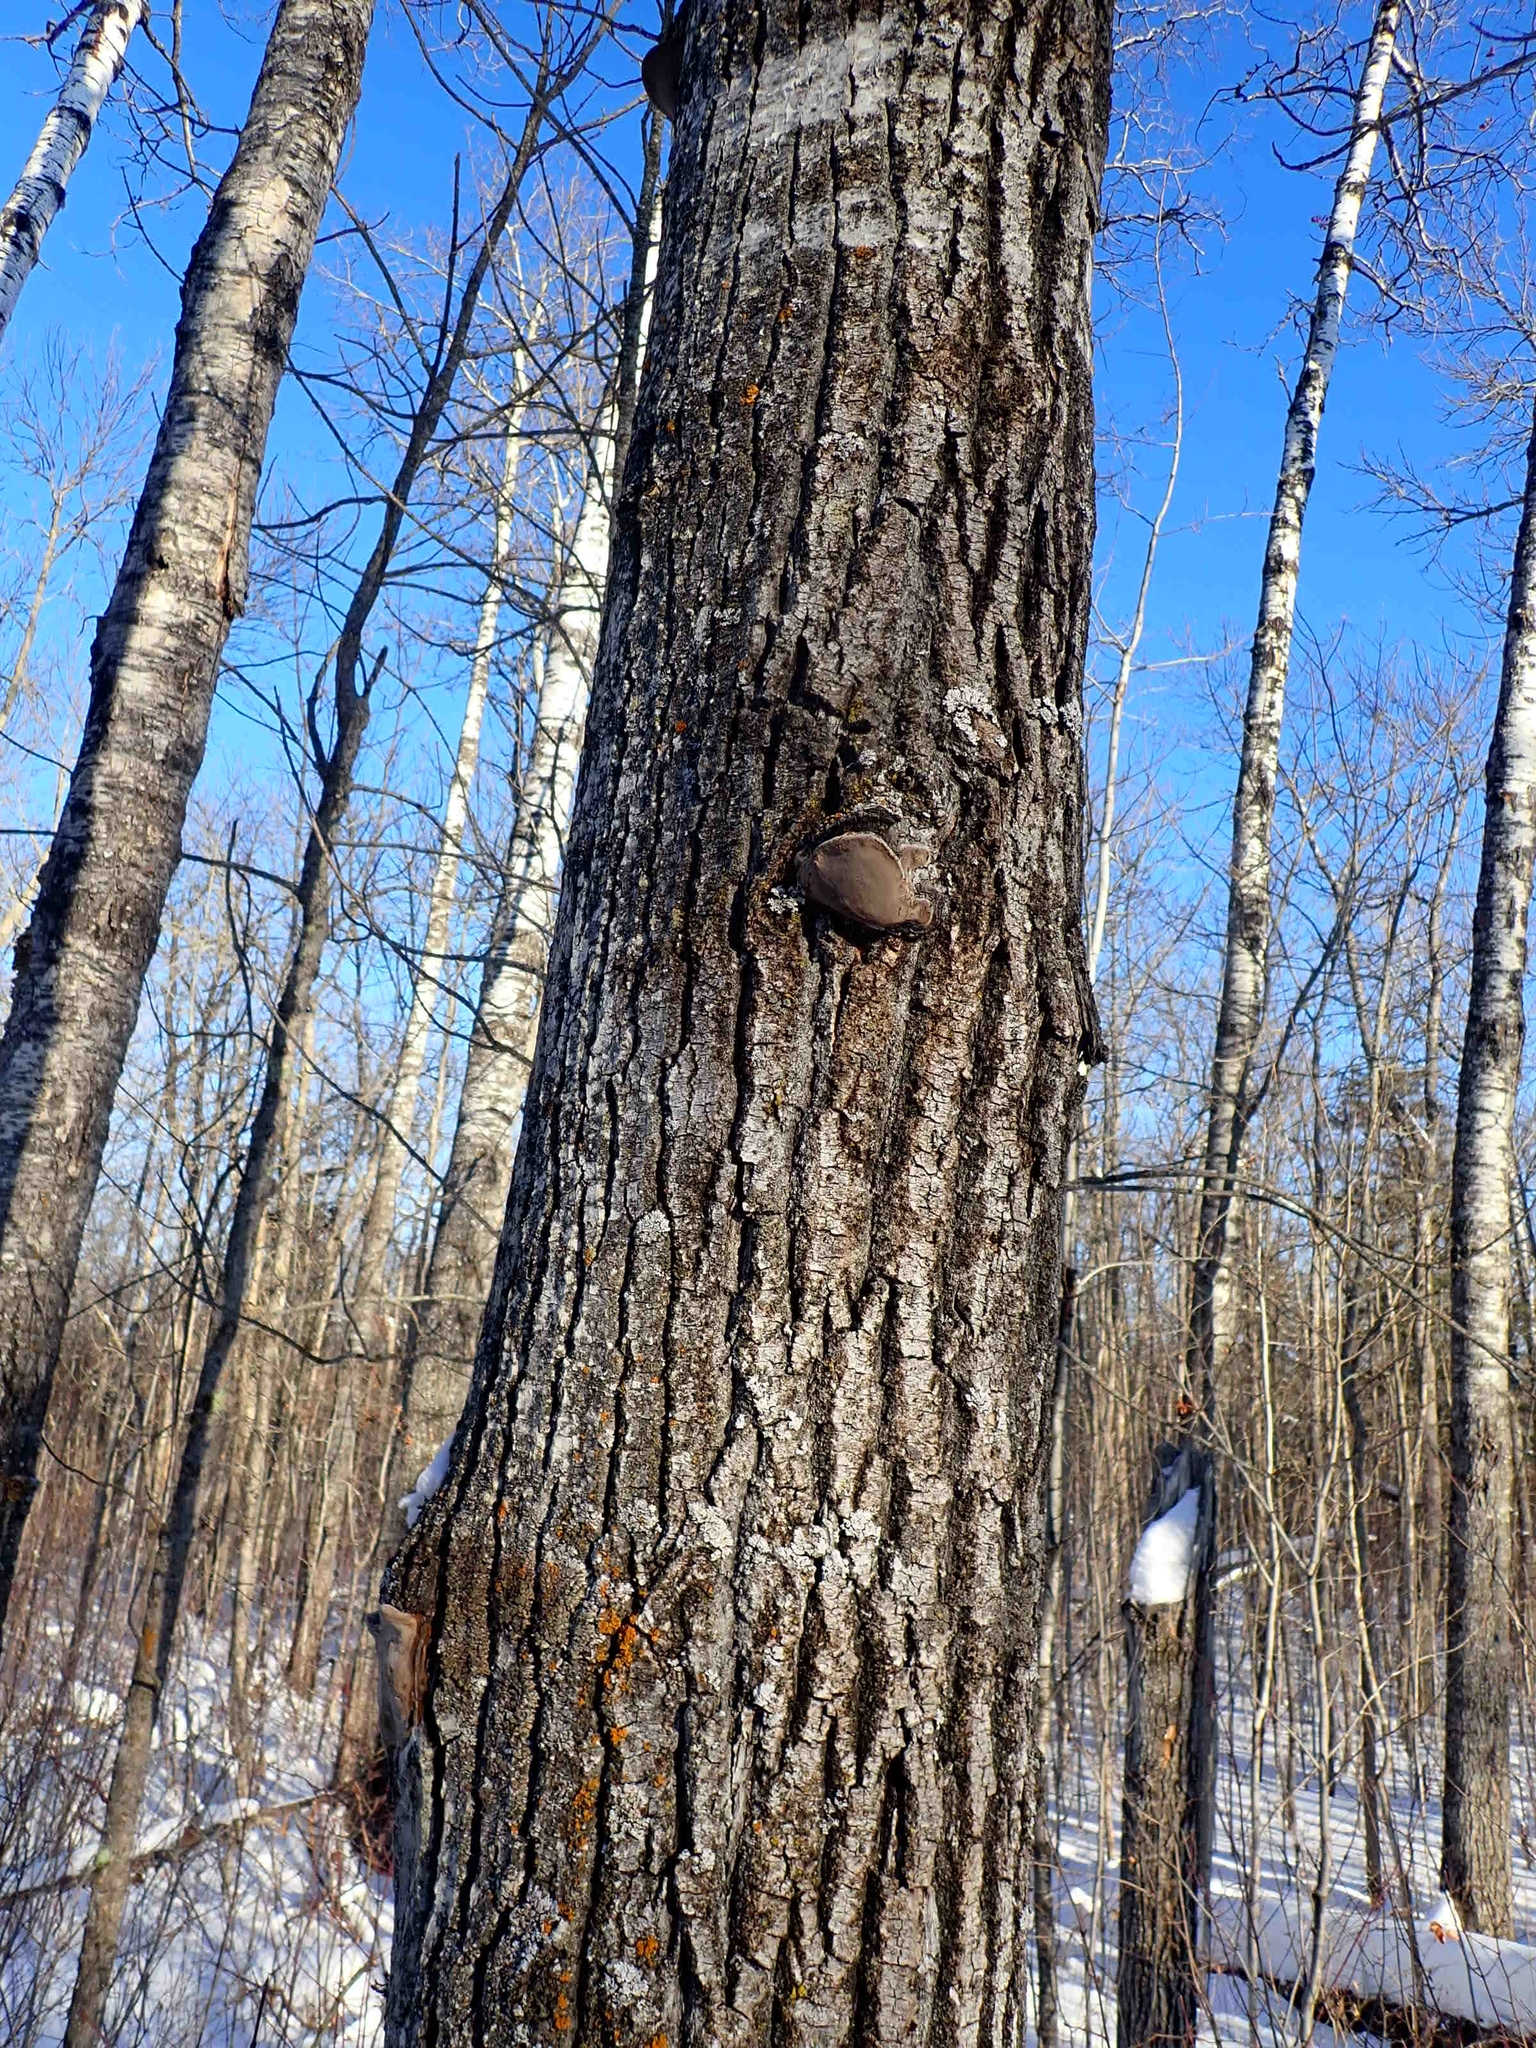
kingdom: Fungi
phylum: Basidiomycota
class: Agaricomycetes
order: Hymenochaetales
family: Hymenochaetaceae
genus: Phellinus
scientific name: Phellinus tremulae
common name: Aspen bracket
